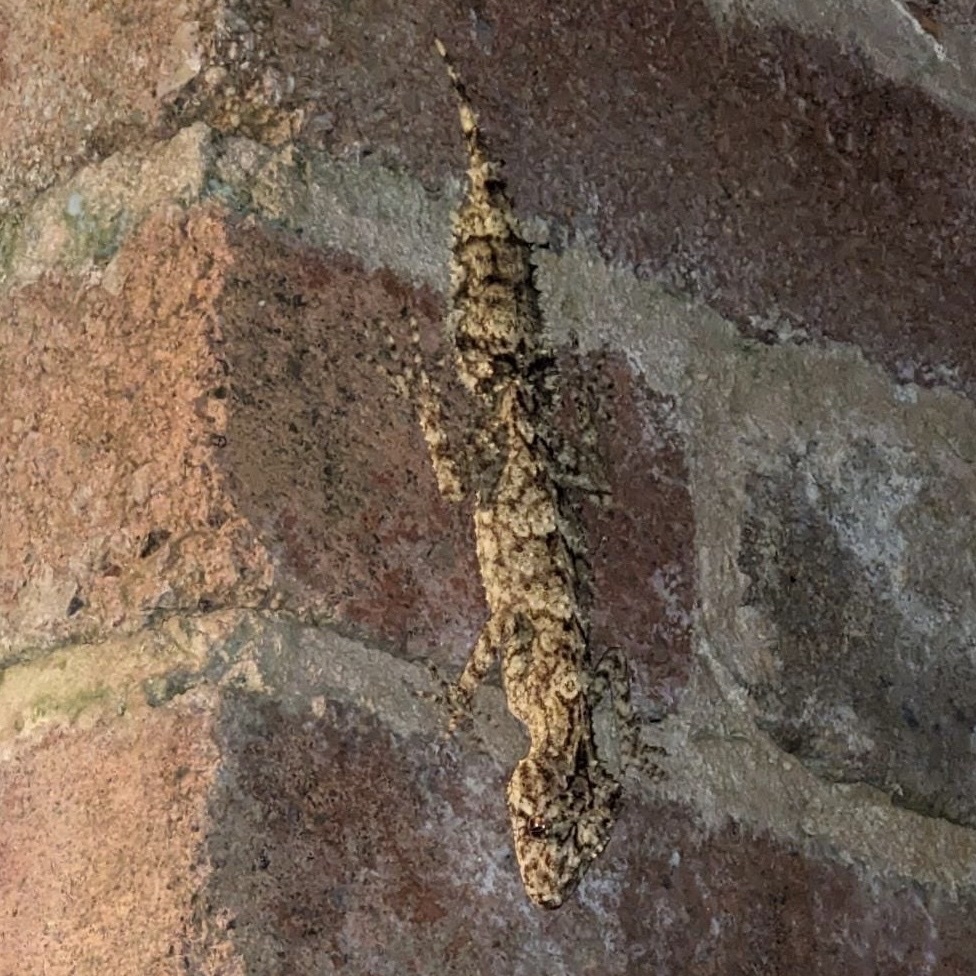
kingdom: Animalia
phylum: Chordata
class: Squamata
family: Carphodactylidae
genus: Saltuarius
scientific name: Saltuarius moritzi
